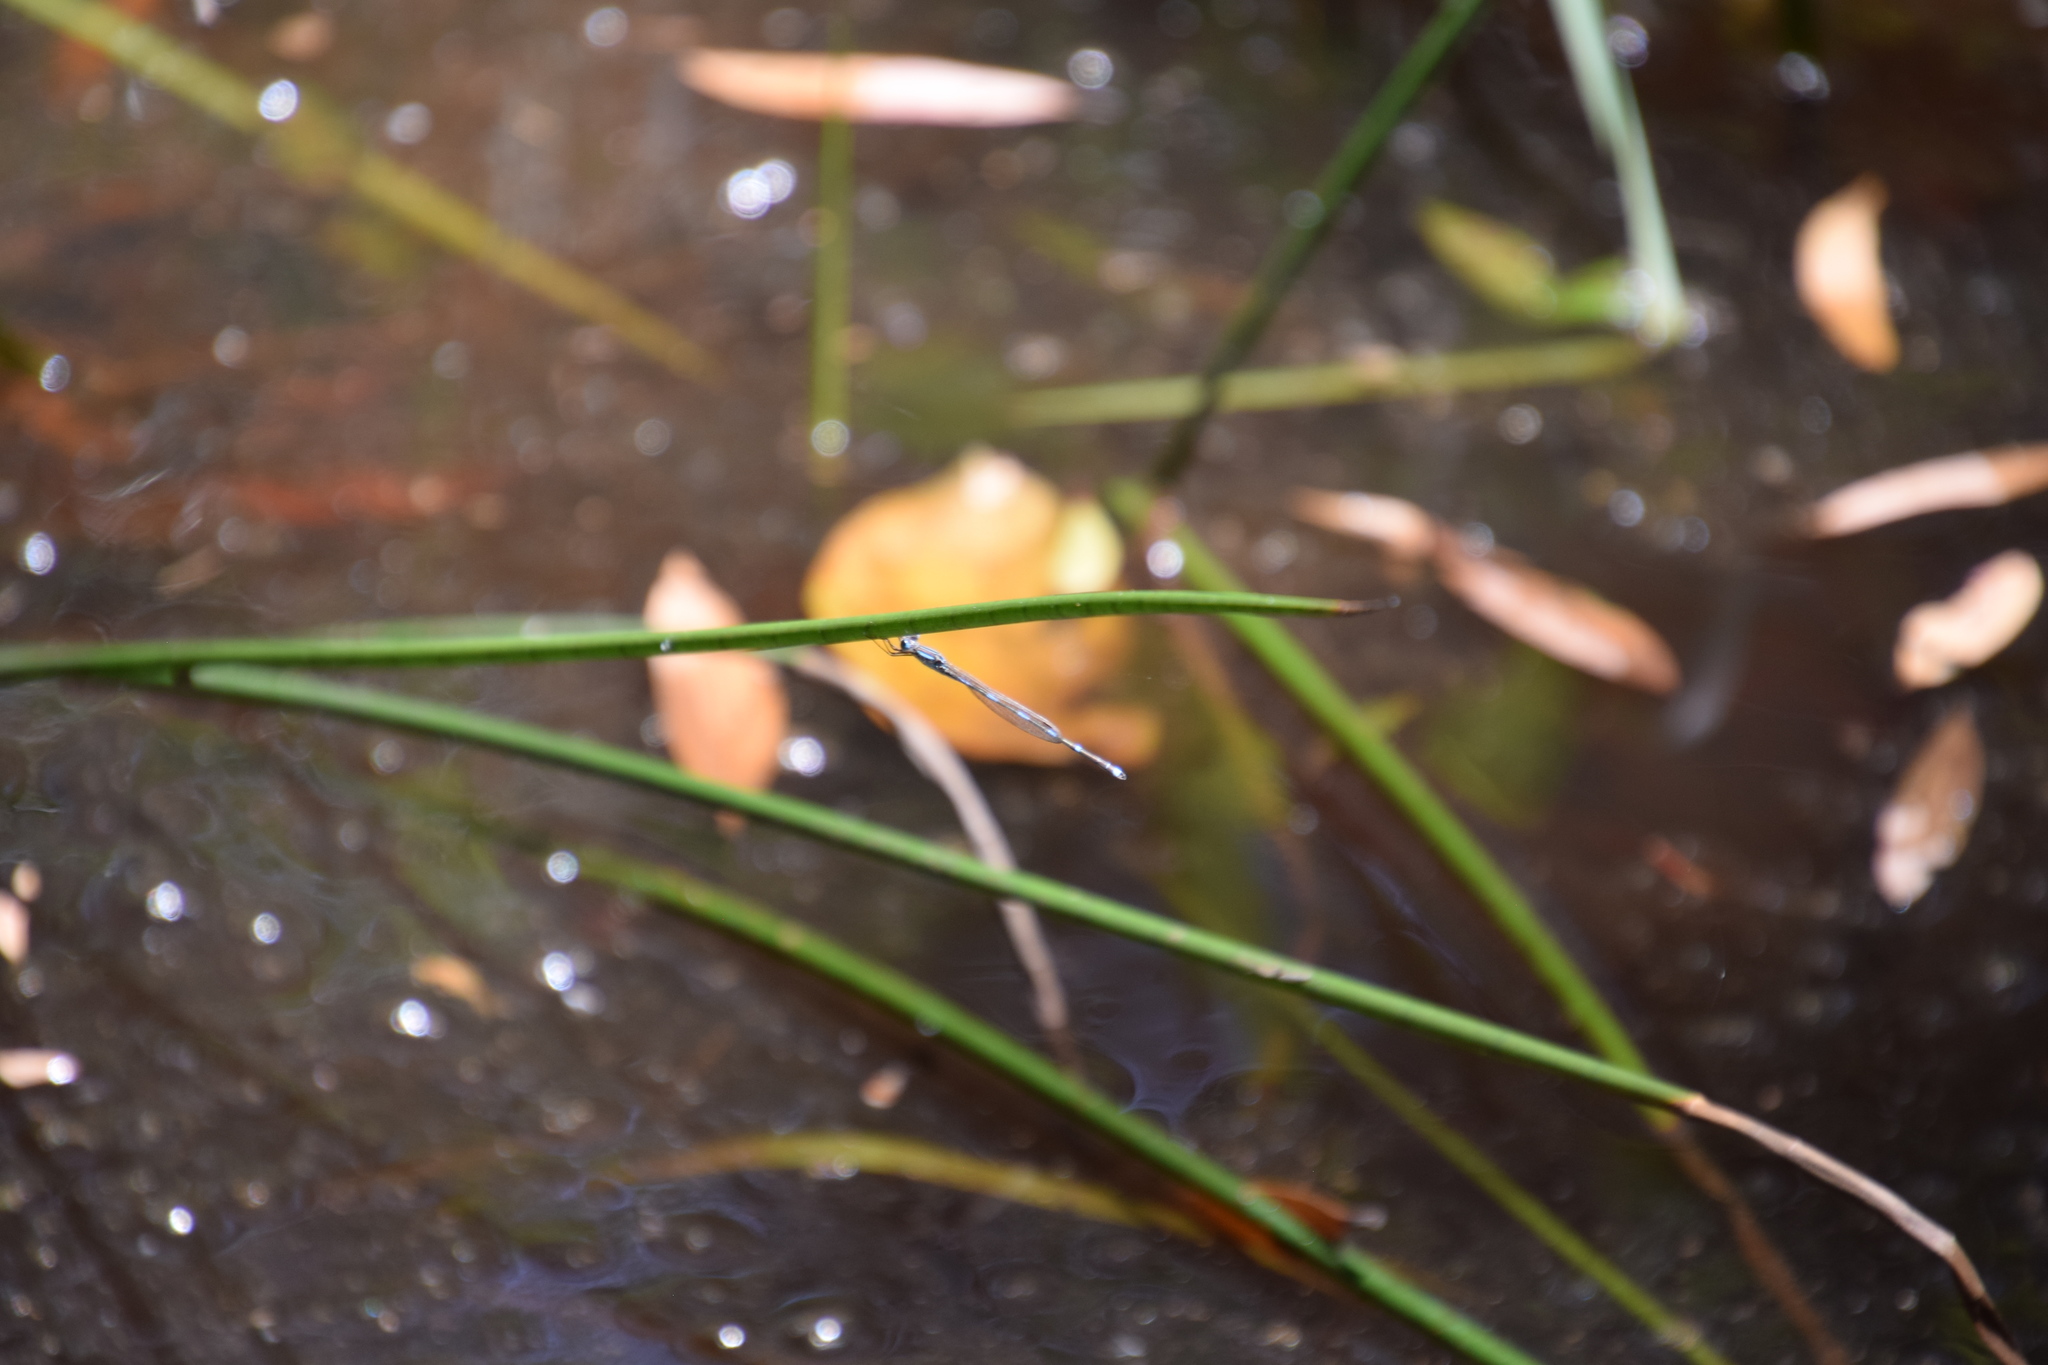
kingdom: Animalia
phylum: Arthropoda
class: Insecta
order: Odonata
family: Lestidae
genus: Austrolestes
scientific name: Austrolestes leda
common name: Wandering ringtail
